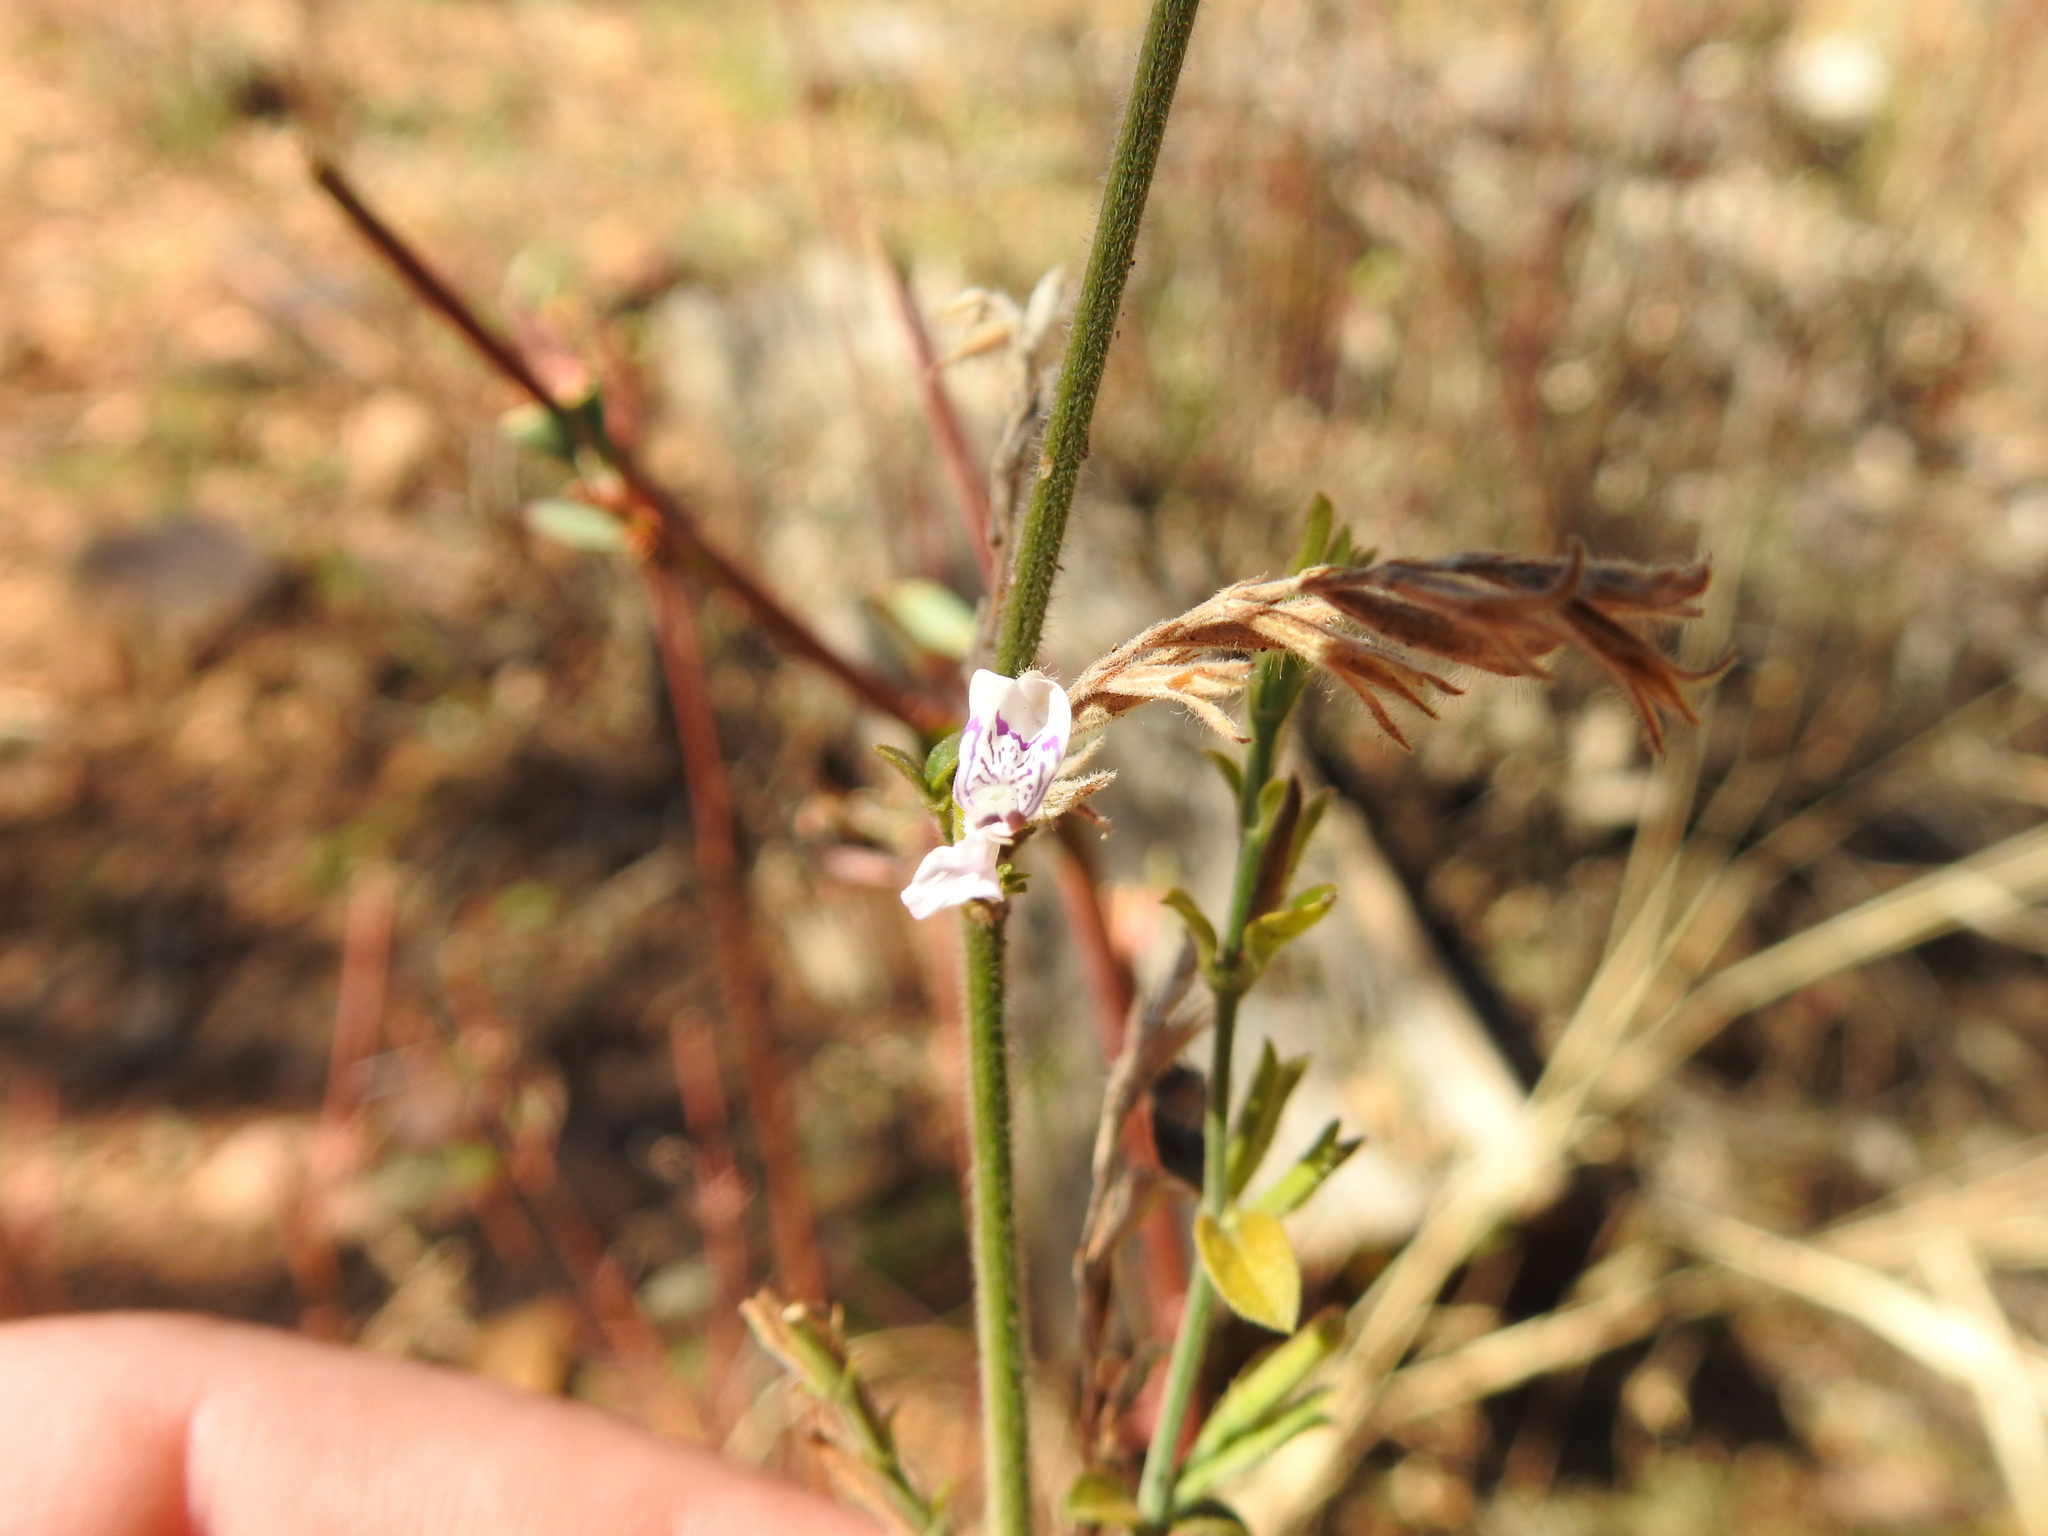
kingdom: Plantae
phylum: Tracheophyta
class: Magnoliopsida
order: Lamiales
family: Acanthaceae
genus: Hypoestes
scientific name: Hypoestes forskaolii
